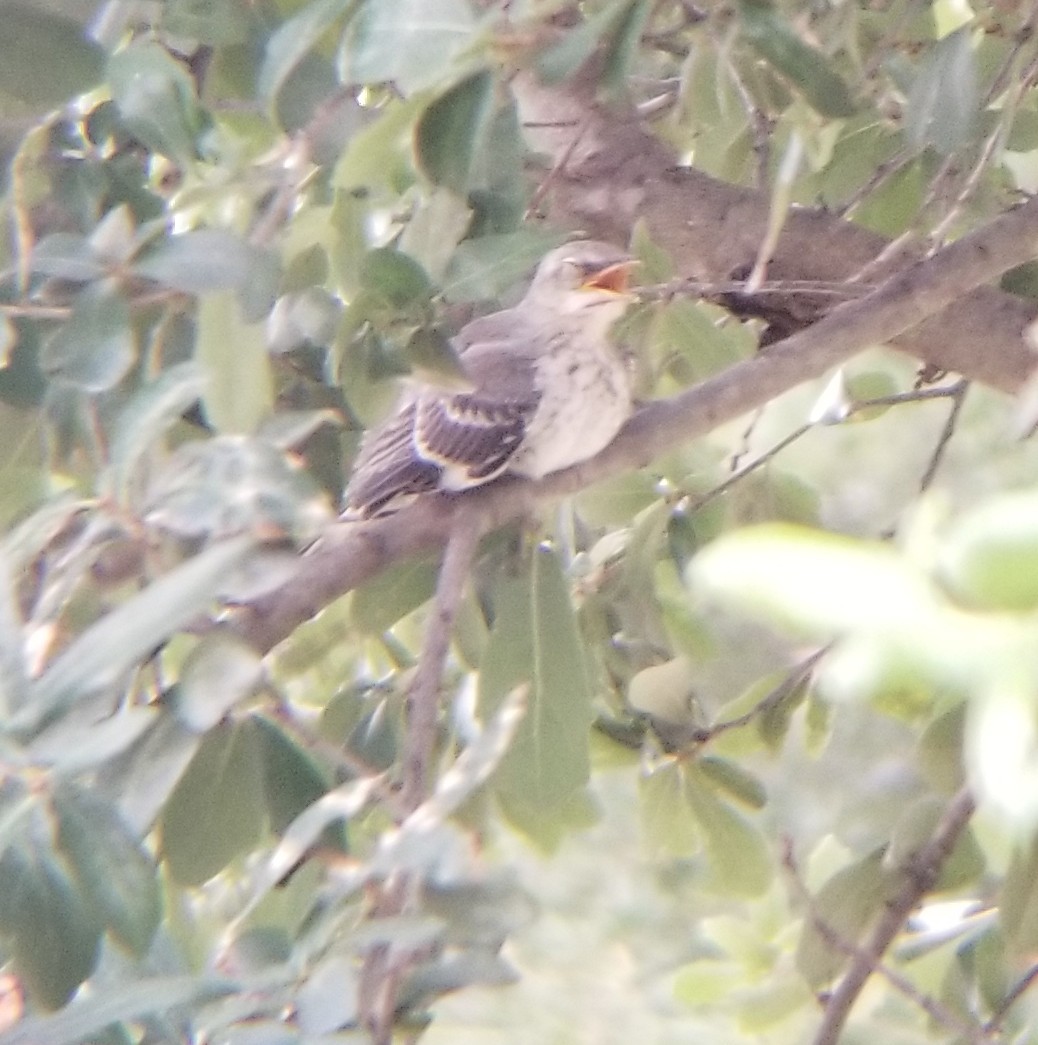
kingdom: Animalia
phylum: Chordata
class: Aves
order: Passeriformes
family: Mimidae
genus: Mimus
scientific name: Mimus polyglottos
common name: Northern mockingbird
